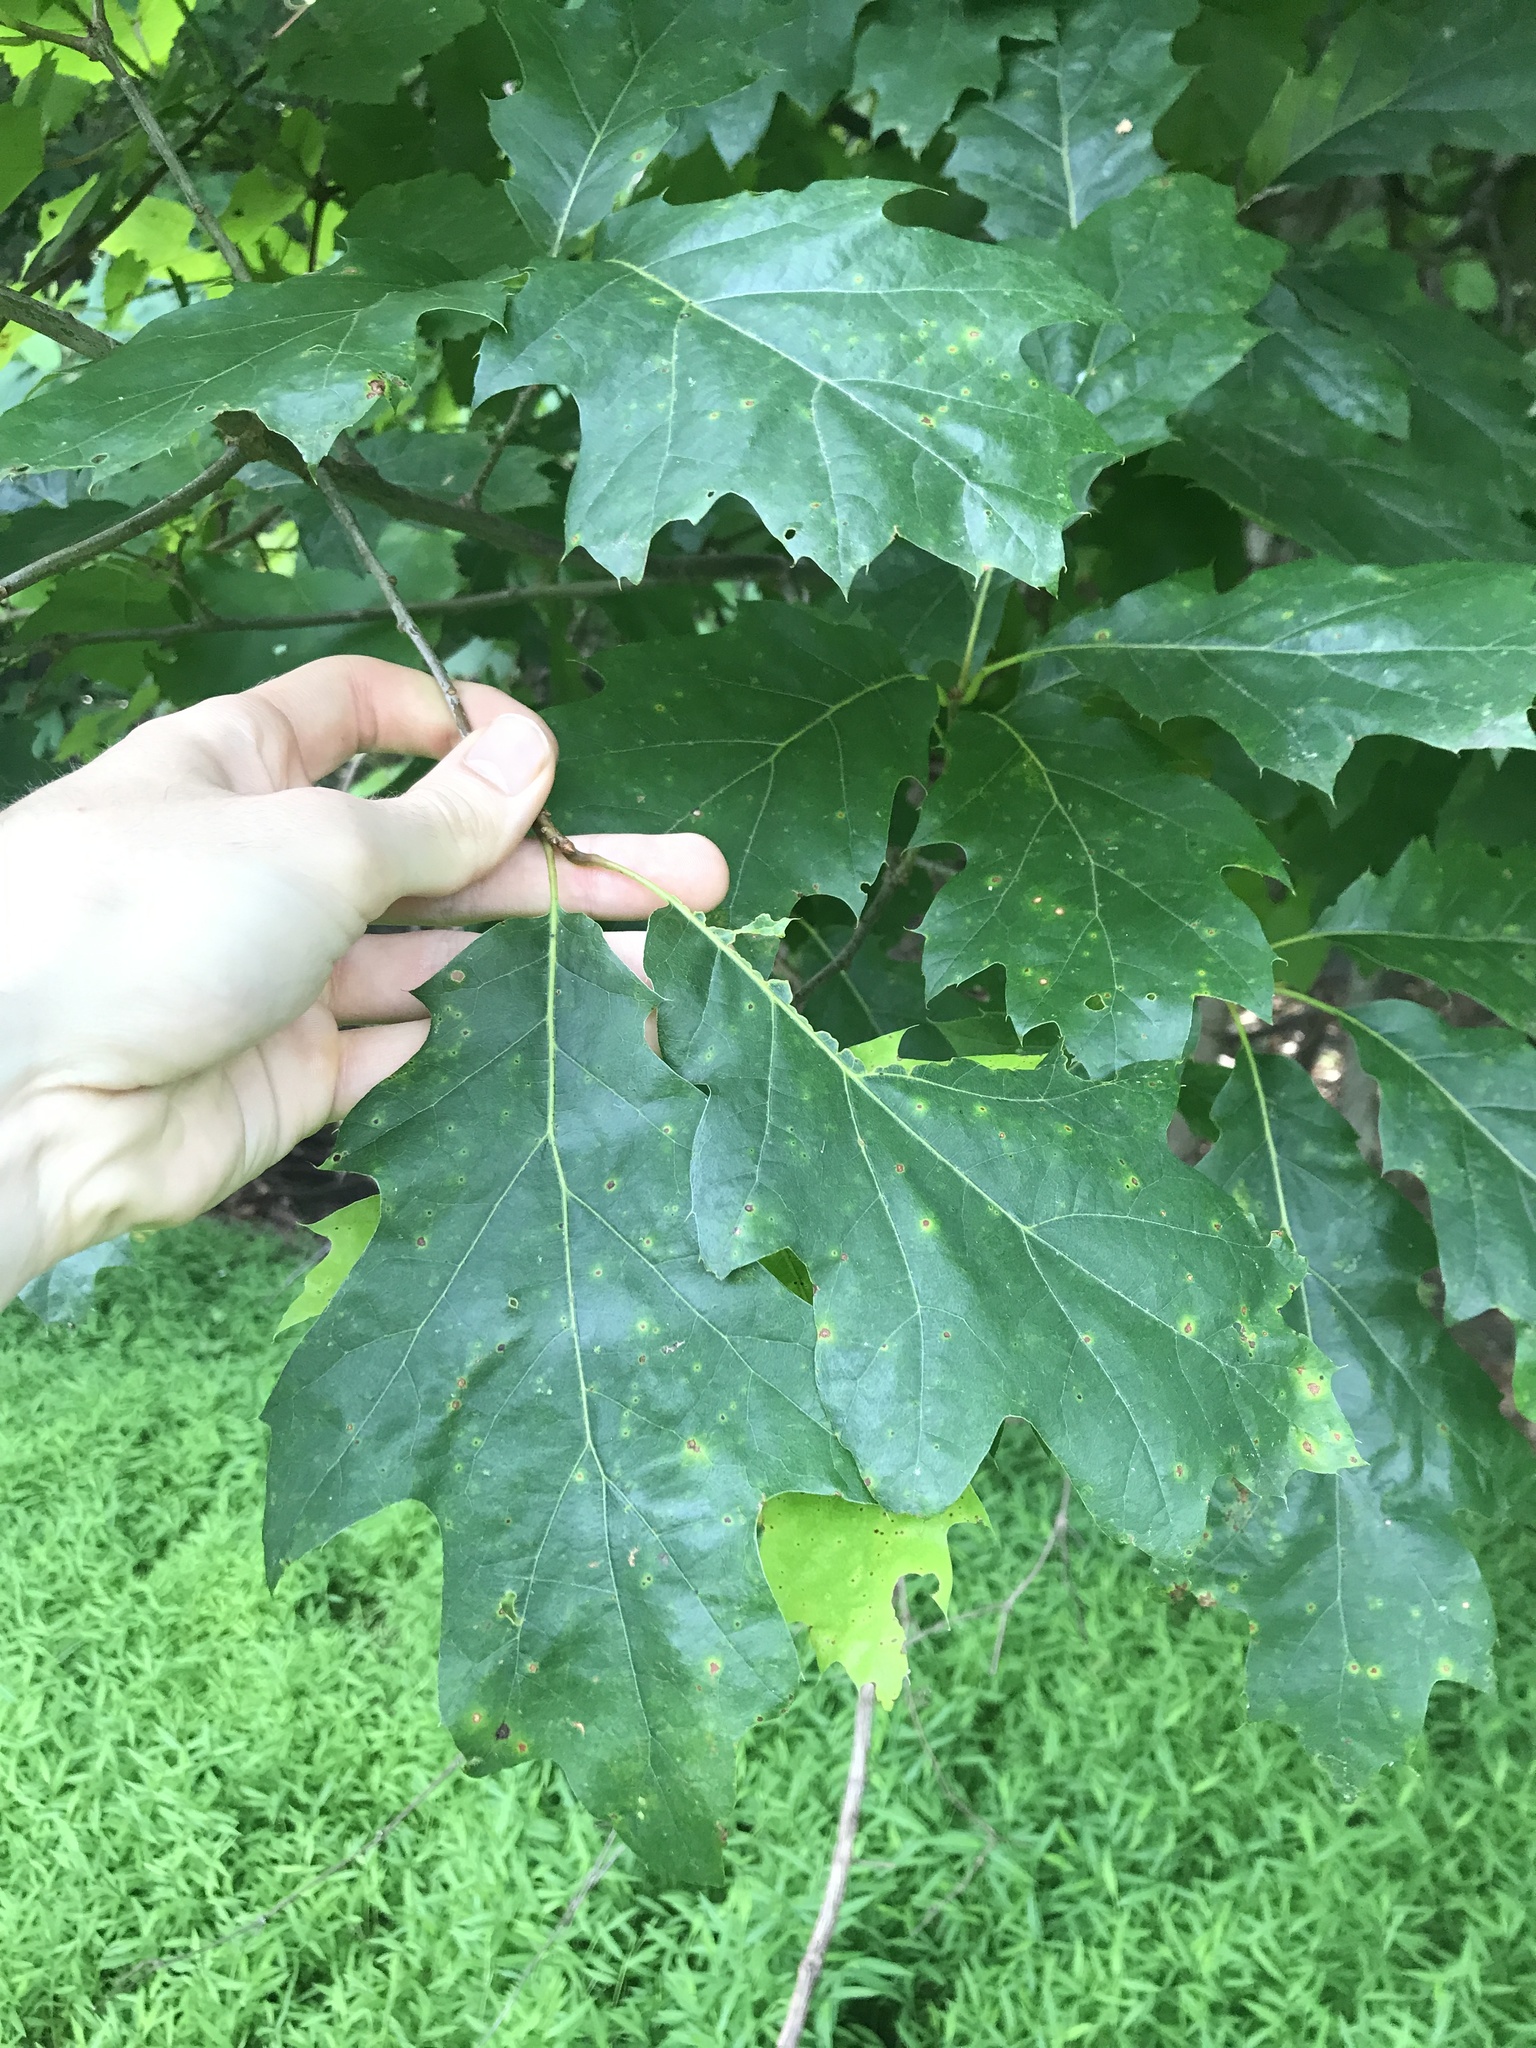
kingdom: Plantae
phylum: Tracheophyta
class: Magnoliopsida
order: Fagales
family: Fagaceae
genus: Quercus
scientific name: Quercus rubra
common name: Red oak
